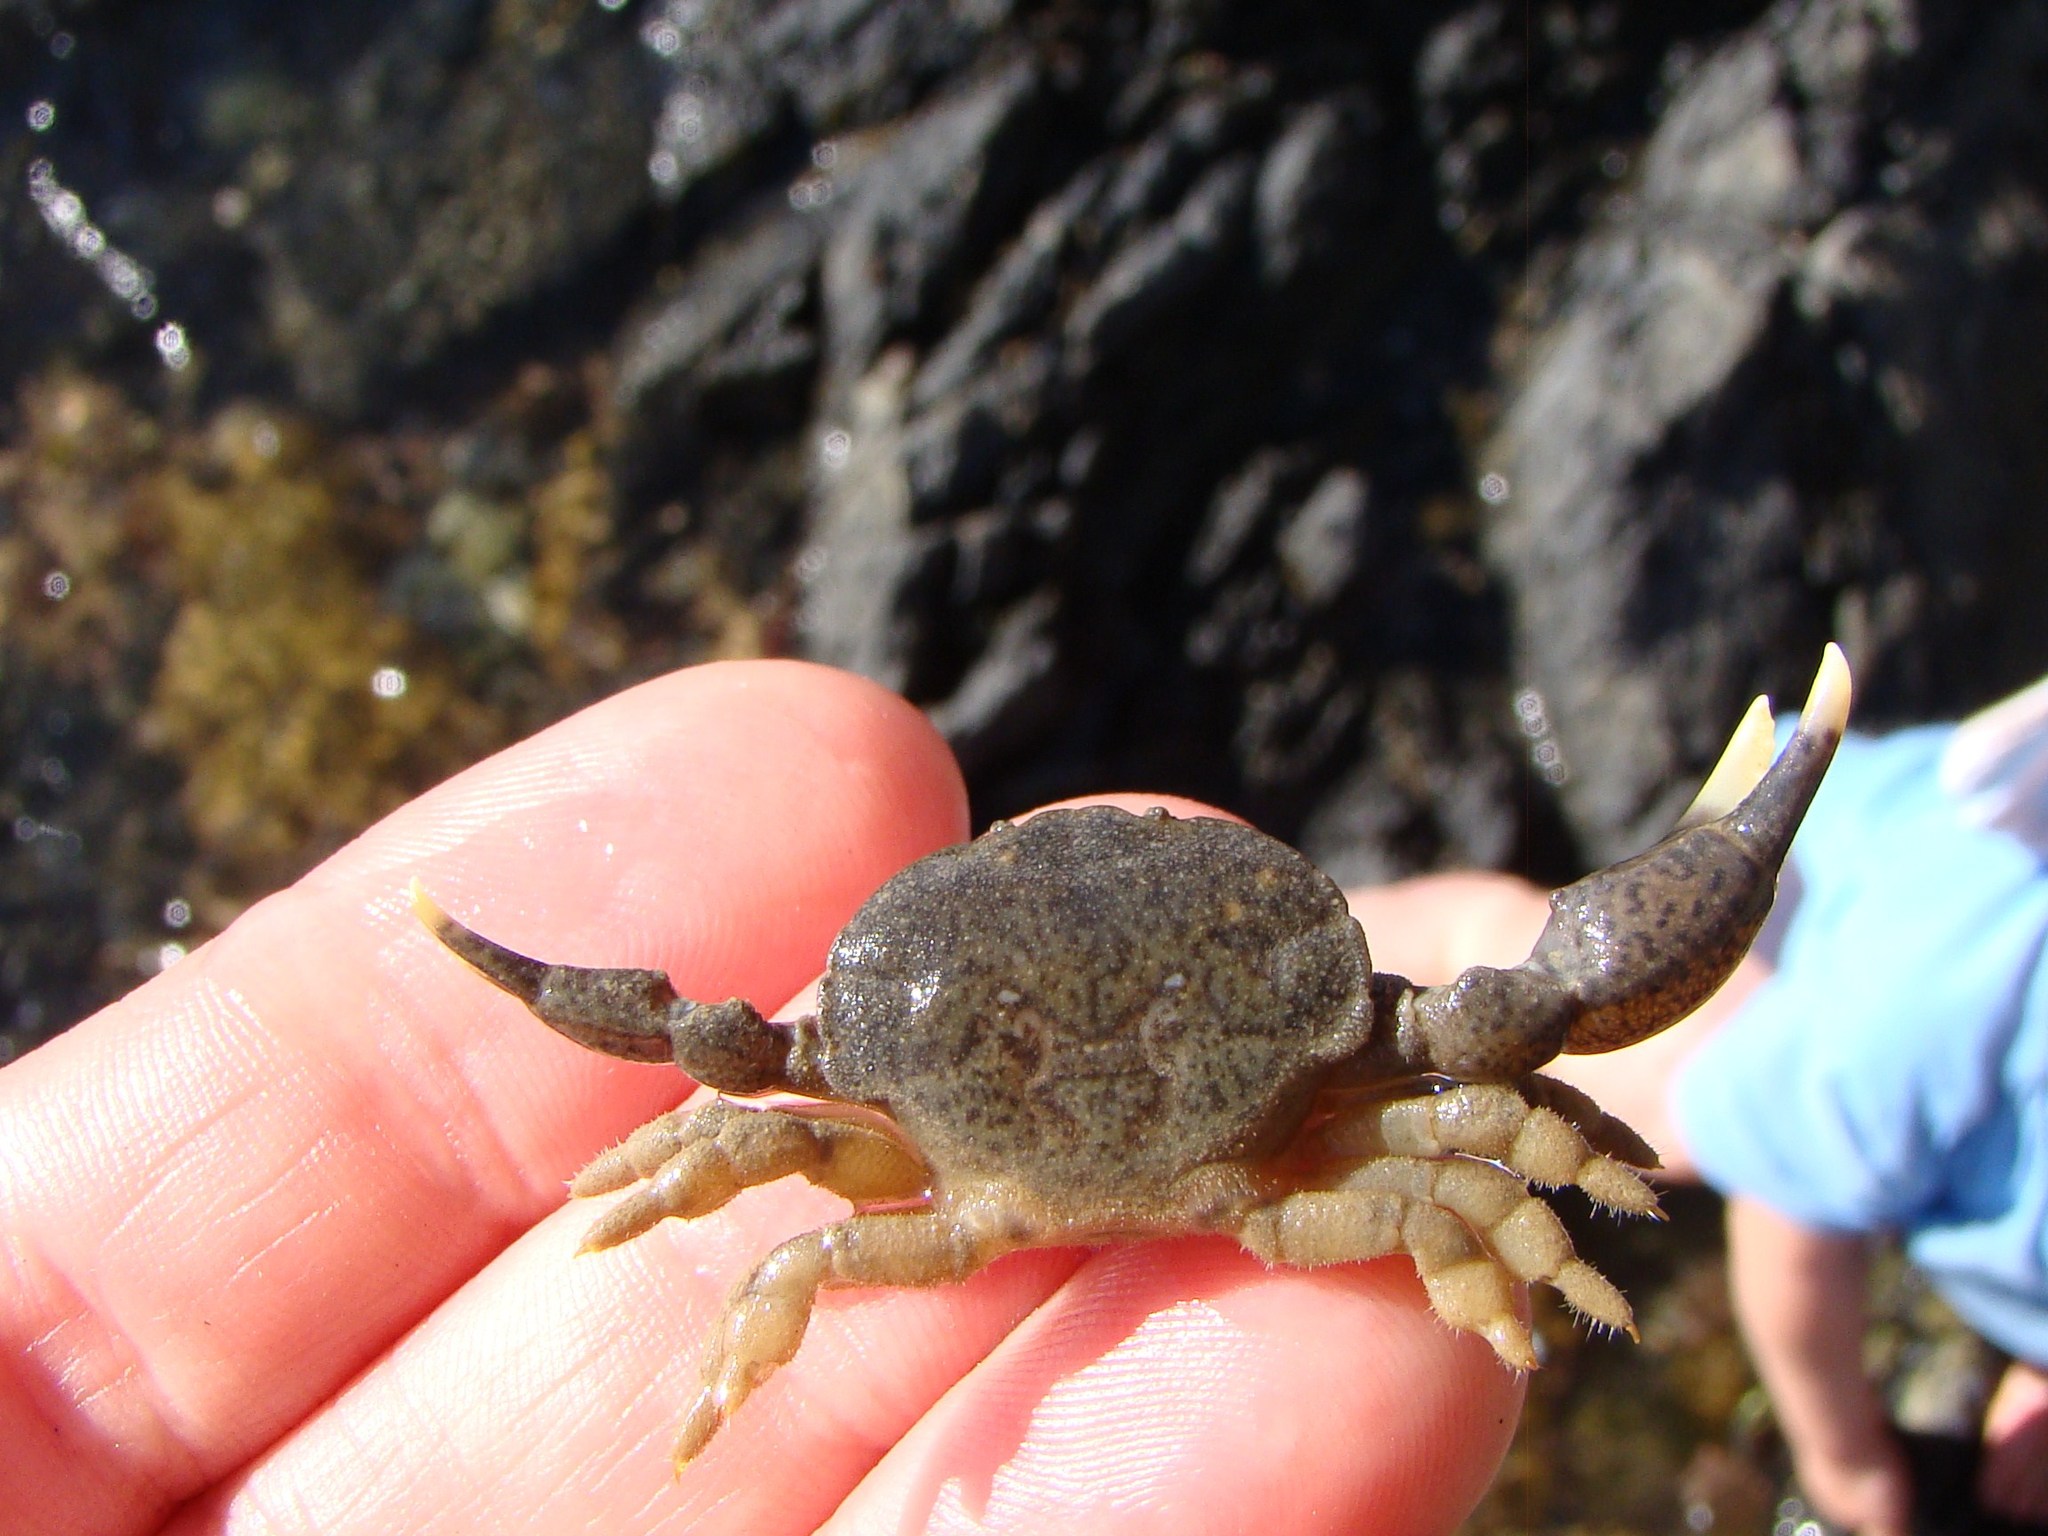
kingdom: Animalia
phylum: Arthropoda
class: Malacostraca
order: Decapoda
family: Heteroziidae
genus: Heterozius
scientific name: Heterozius rotundifrons
